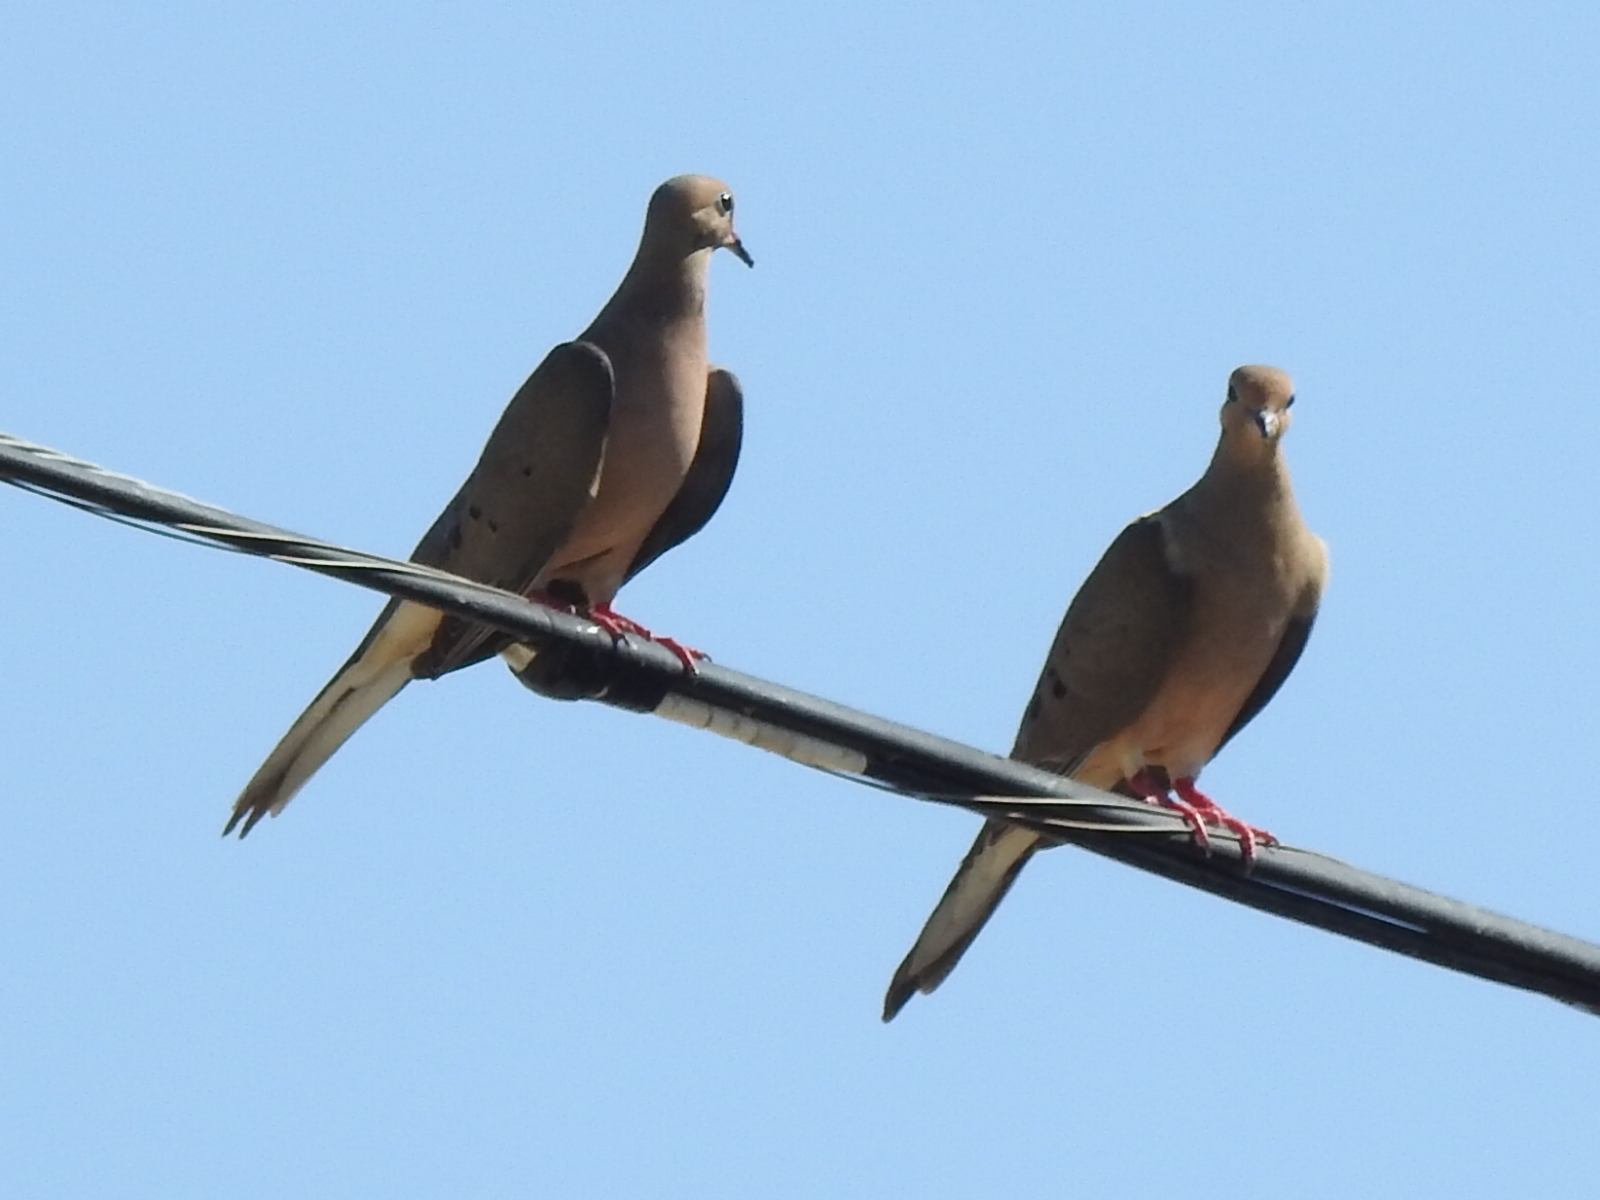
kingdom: Animalia
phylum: Chordata
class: Aves
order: Columbiformes
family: Columbidae
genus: Zenaida
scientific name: Zenaida macroura
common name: Mourning dove
